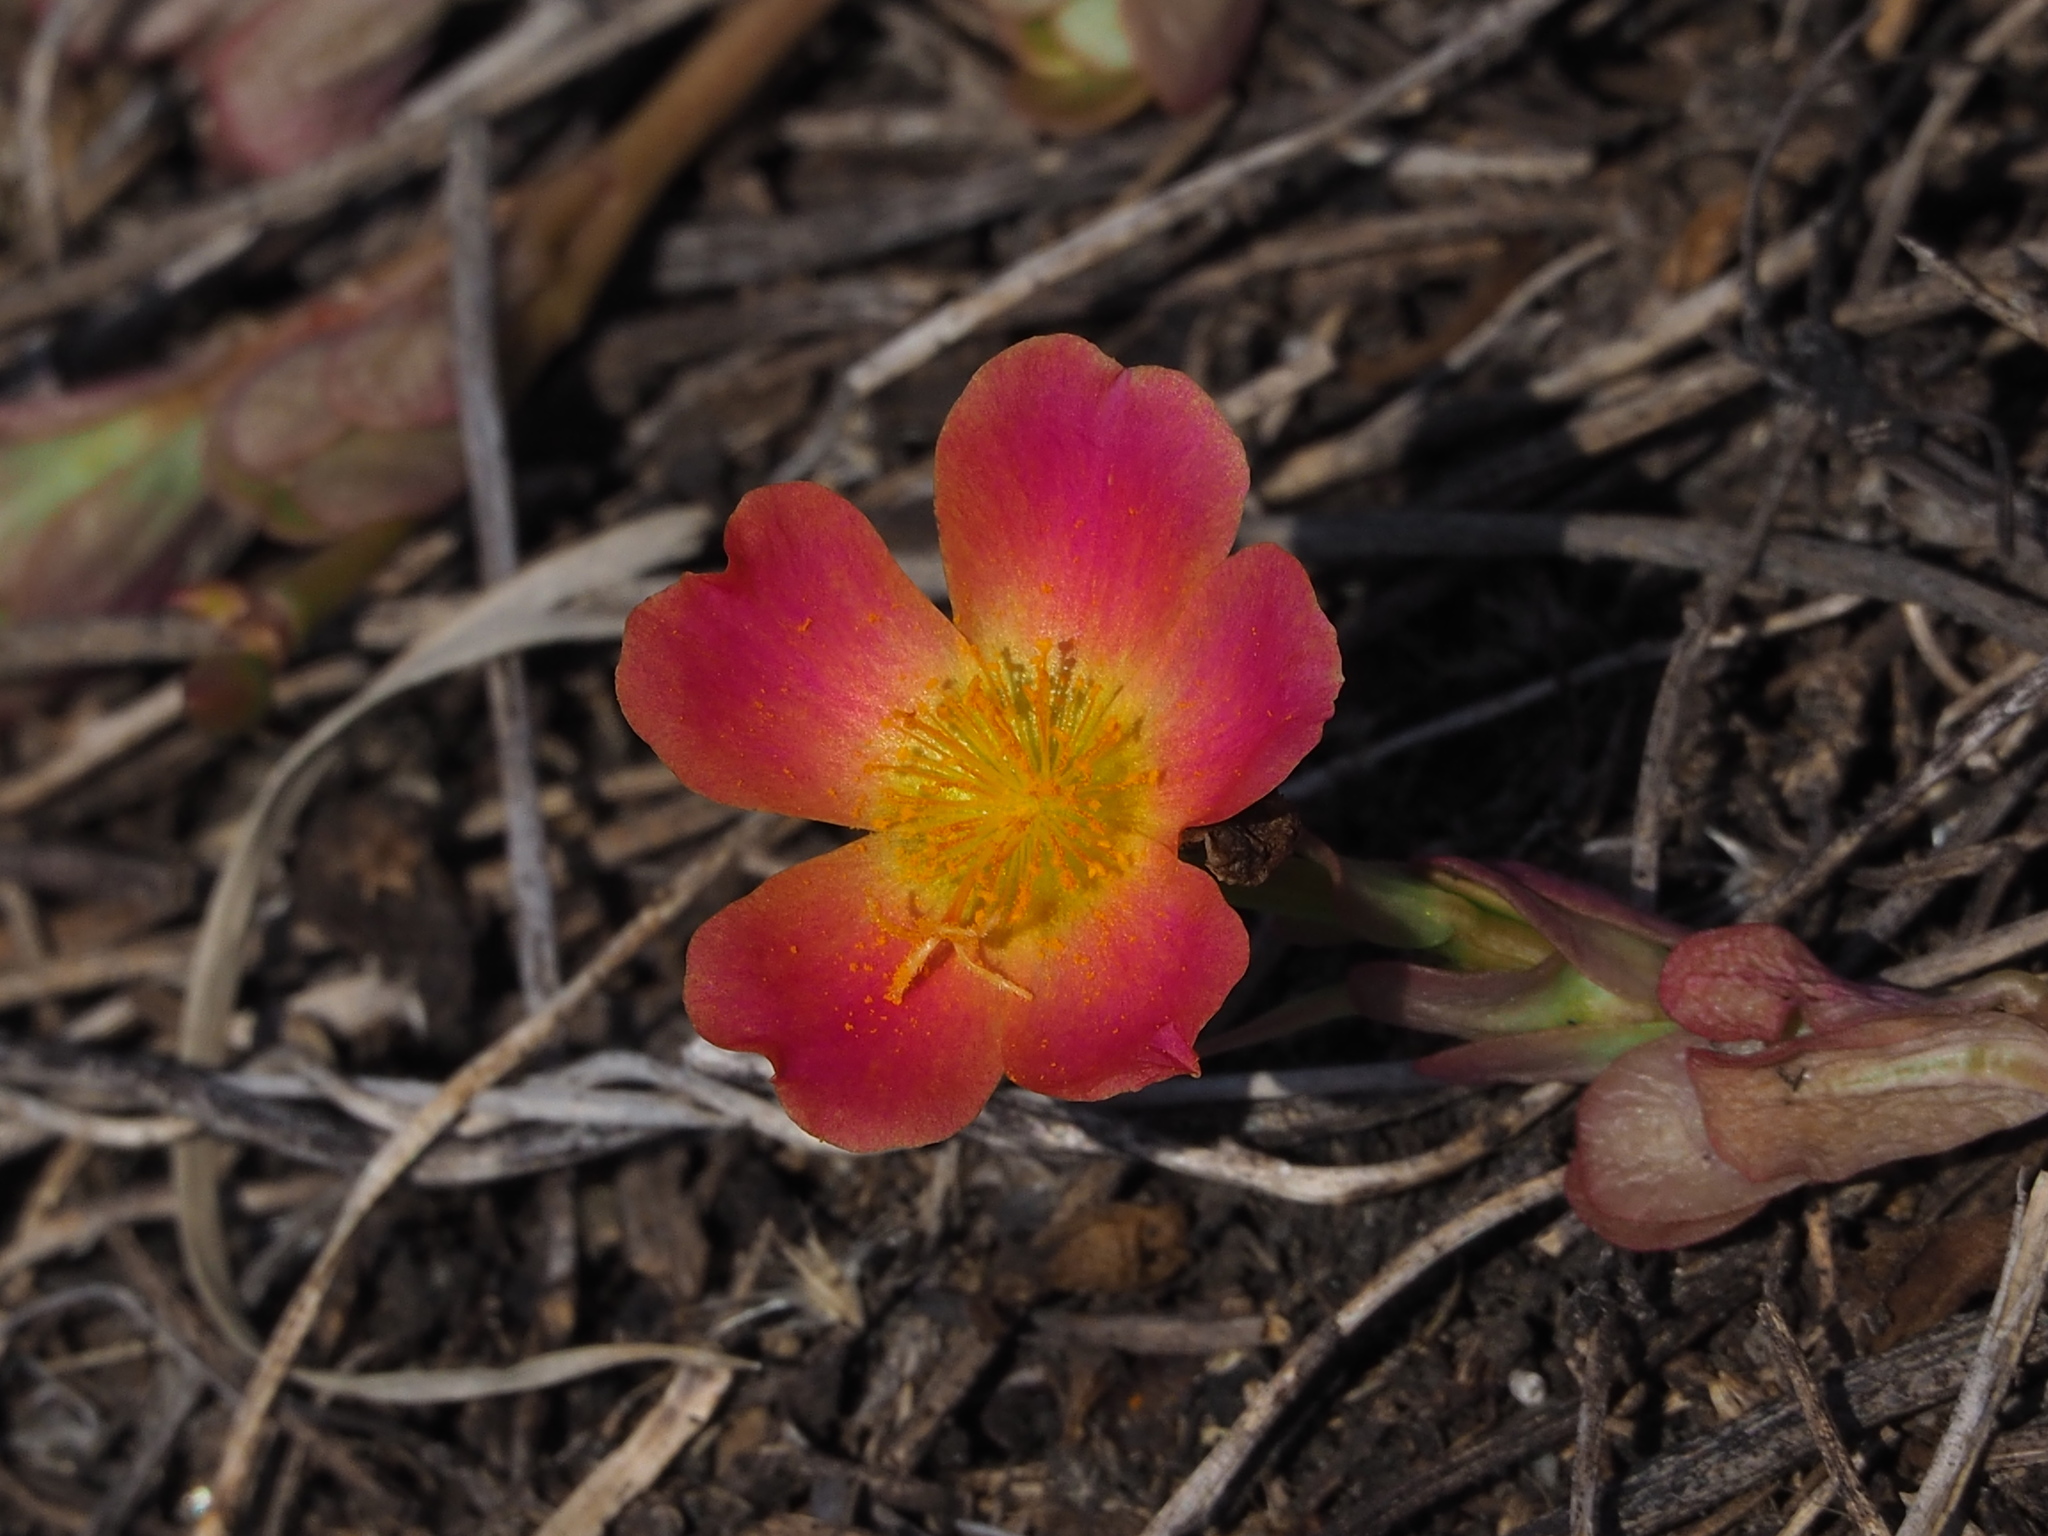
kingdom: Plantae
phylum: Tracheophyta
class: Magnoliopsida
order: Caryophyllales
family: Portulacaceae
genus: Portulaca
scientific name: Portulaca umbraticola
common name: Wingpod purslane
